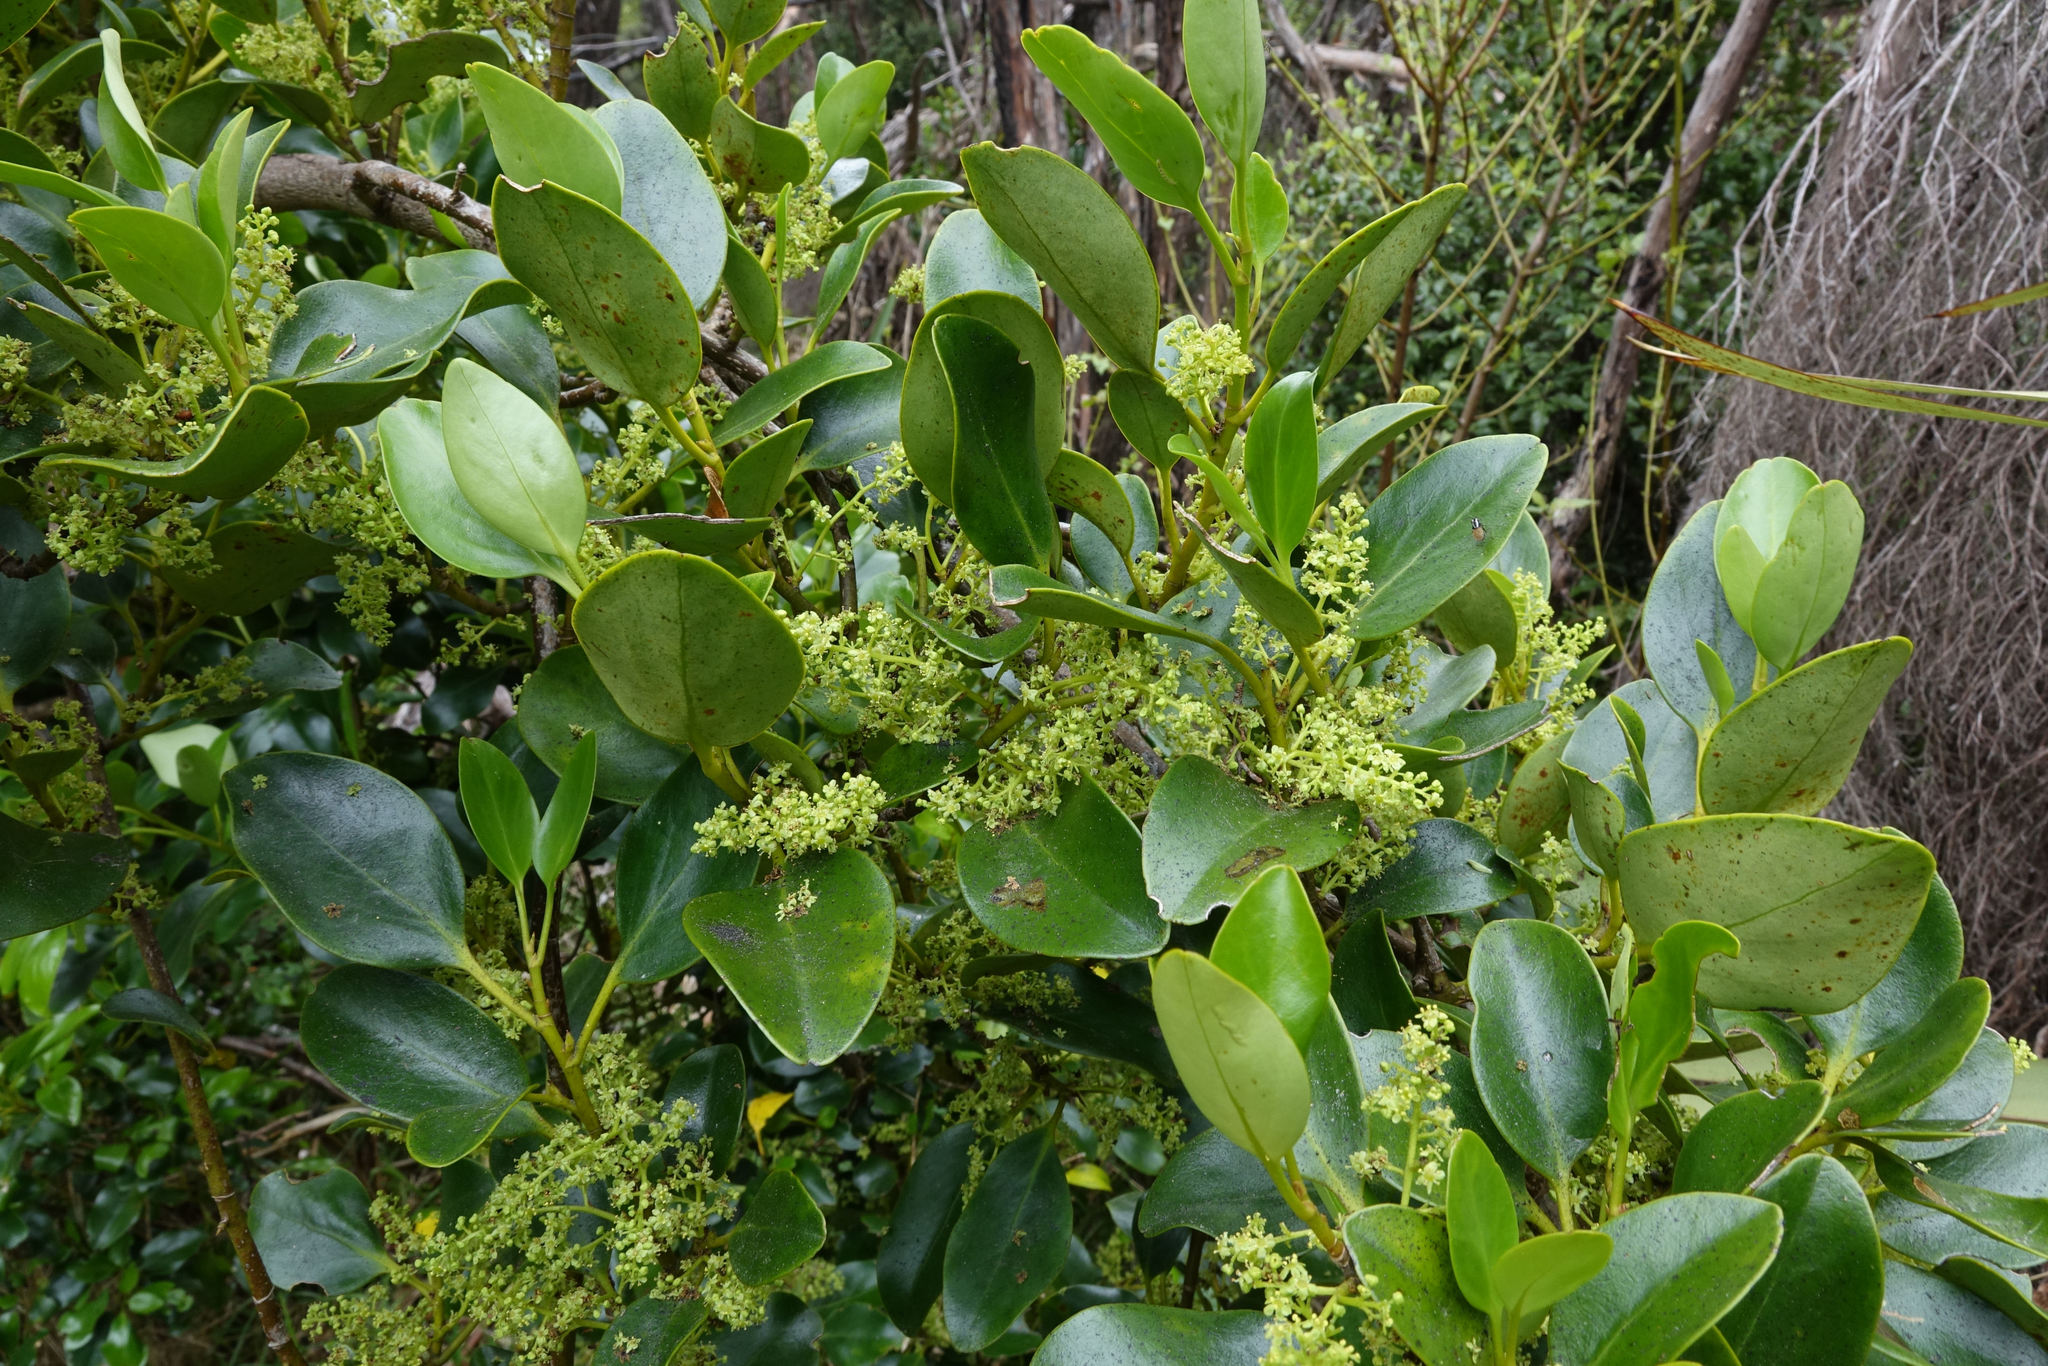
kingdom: Plantae
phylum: Tracheophyta
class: Magnoliopsida
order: Apiales
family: Griseliniaceae
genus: Griselinia
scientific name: Griselinia littoralis
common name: New zealand broadleaf
